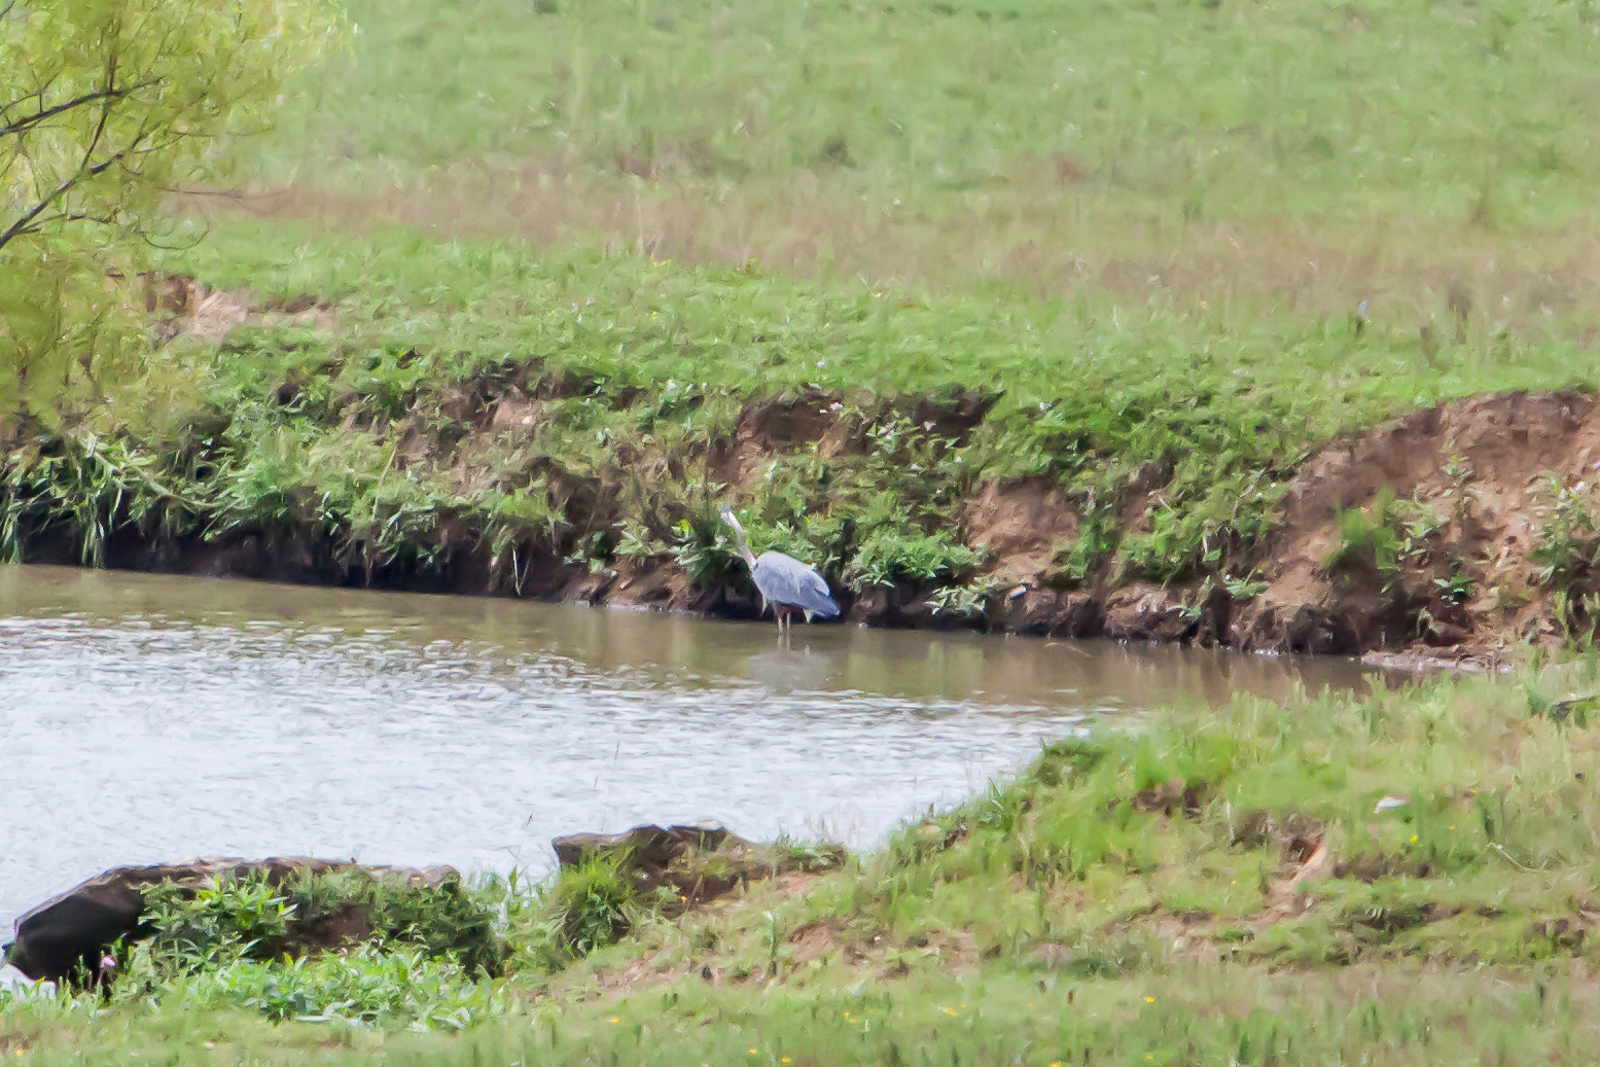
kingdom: Animalia
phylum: Chordata
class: Aves
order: Pelecaniformes
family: Ardeidae
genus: Ardea
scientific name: Ardea herodias
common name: Great blue heron
